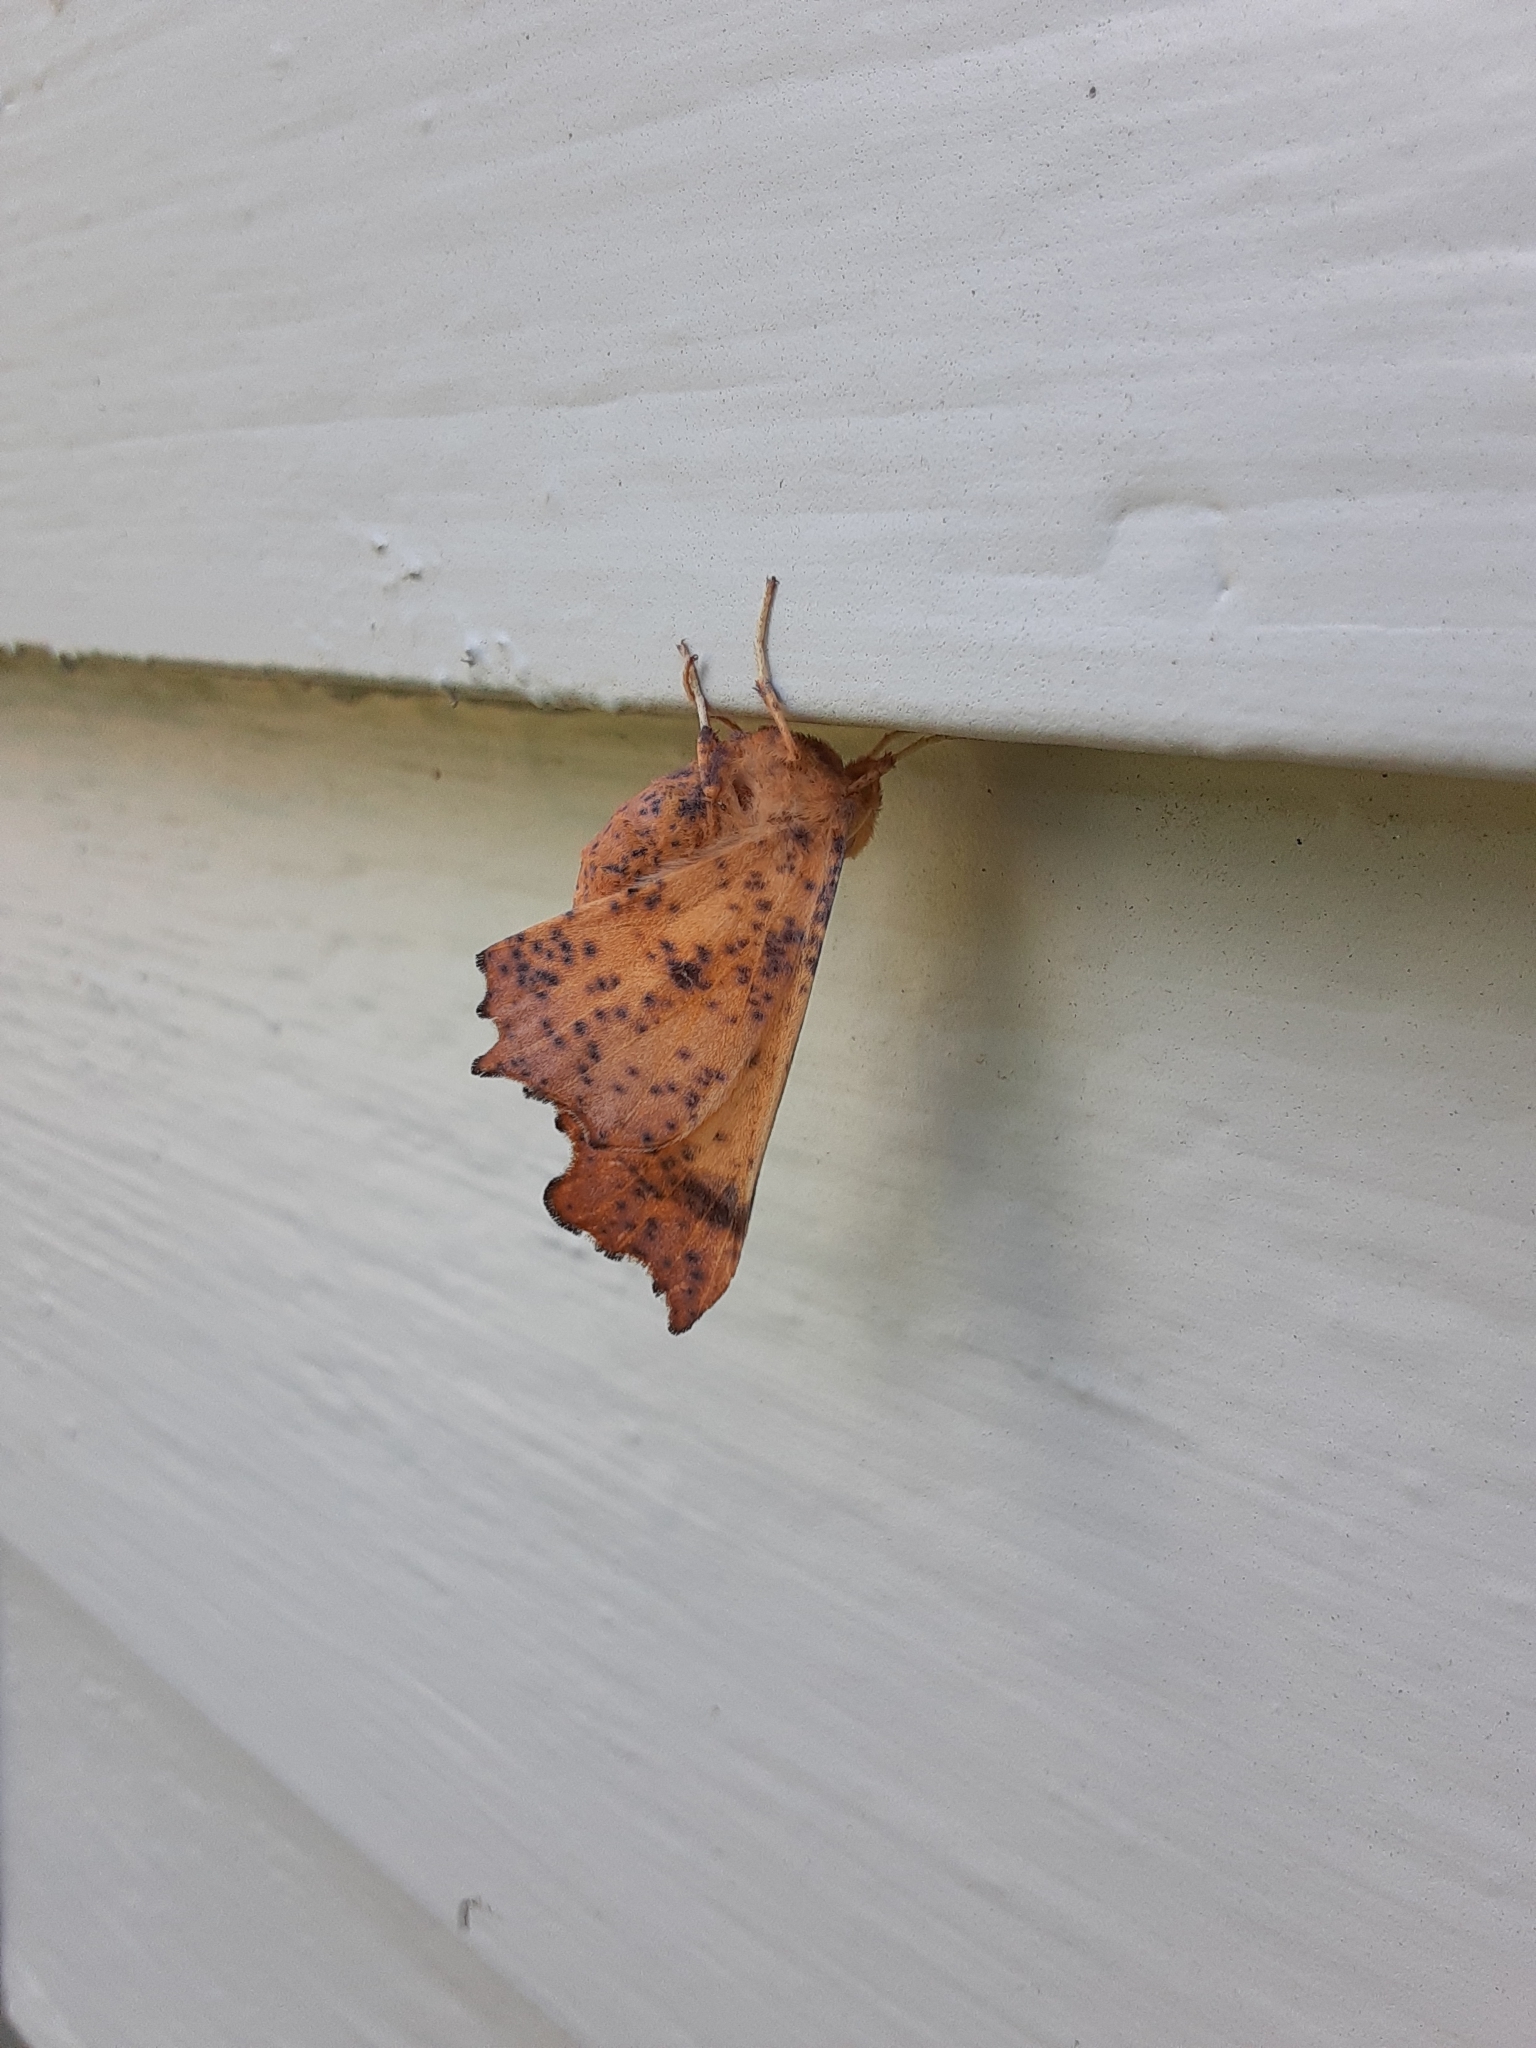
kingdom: Animalia
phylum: Arthropoda
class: Insecta
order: Lepidoptera
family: Geometridae
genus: Ennomos
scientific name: Ennomos magnaria
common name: Maple spanworm
